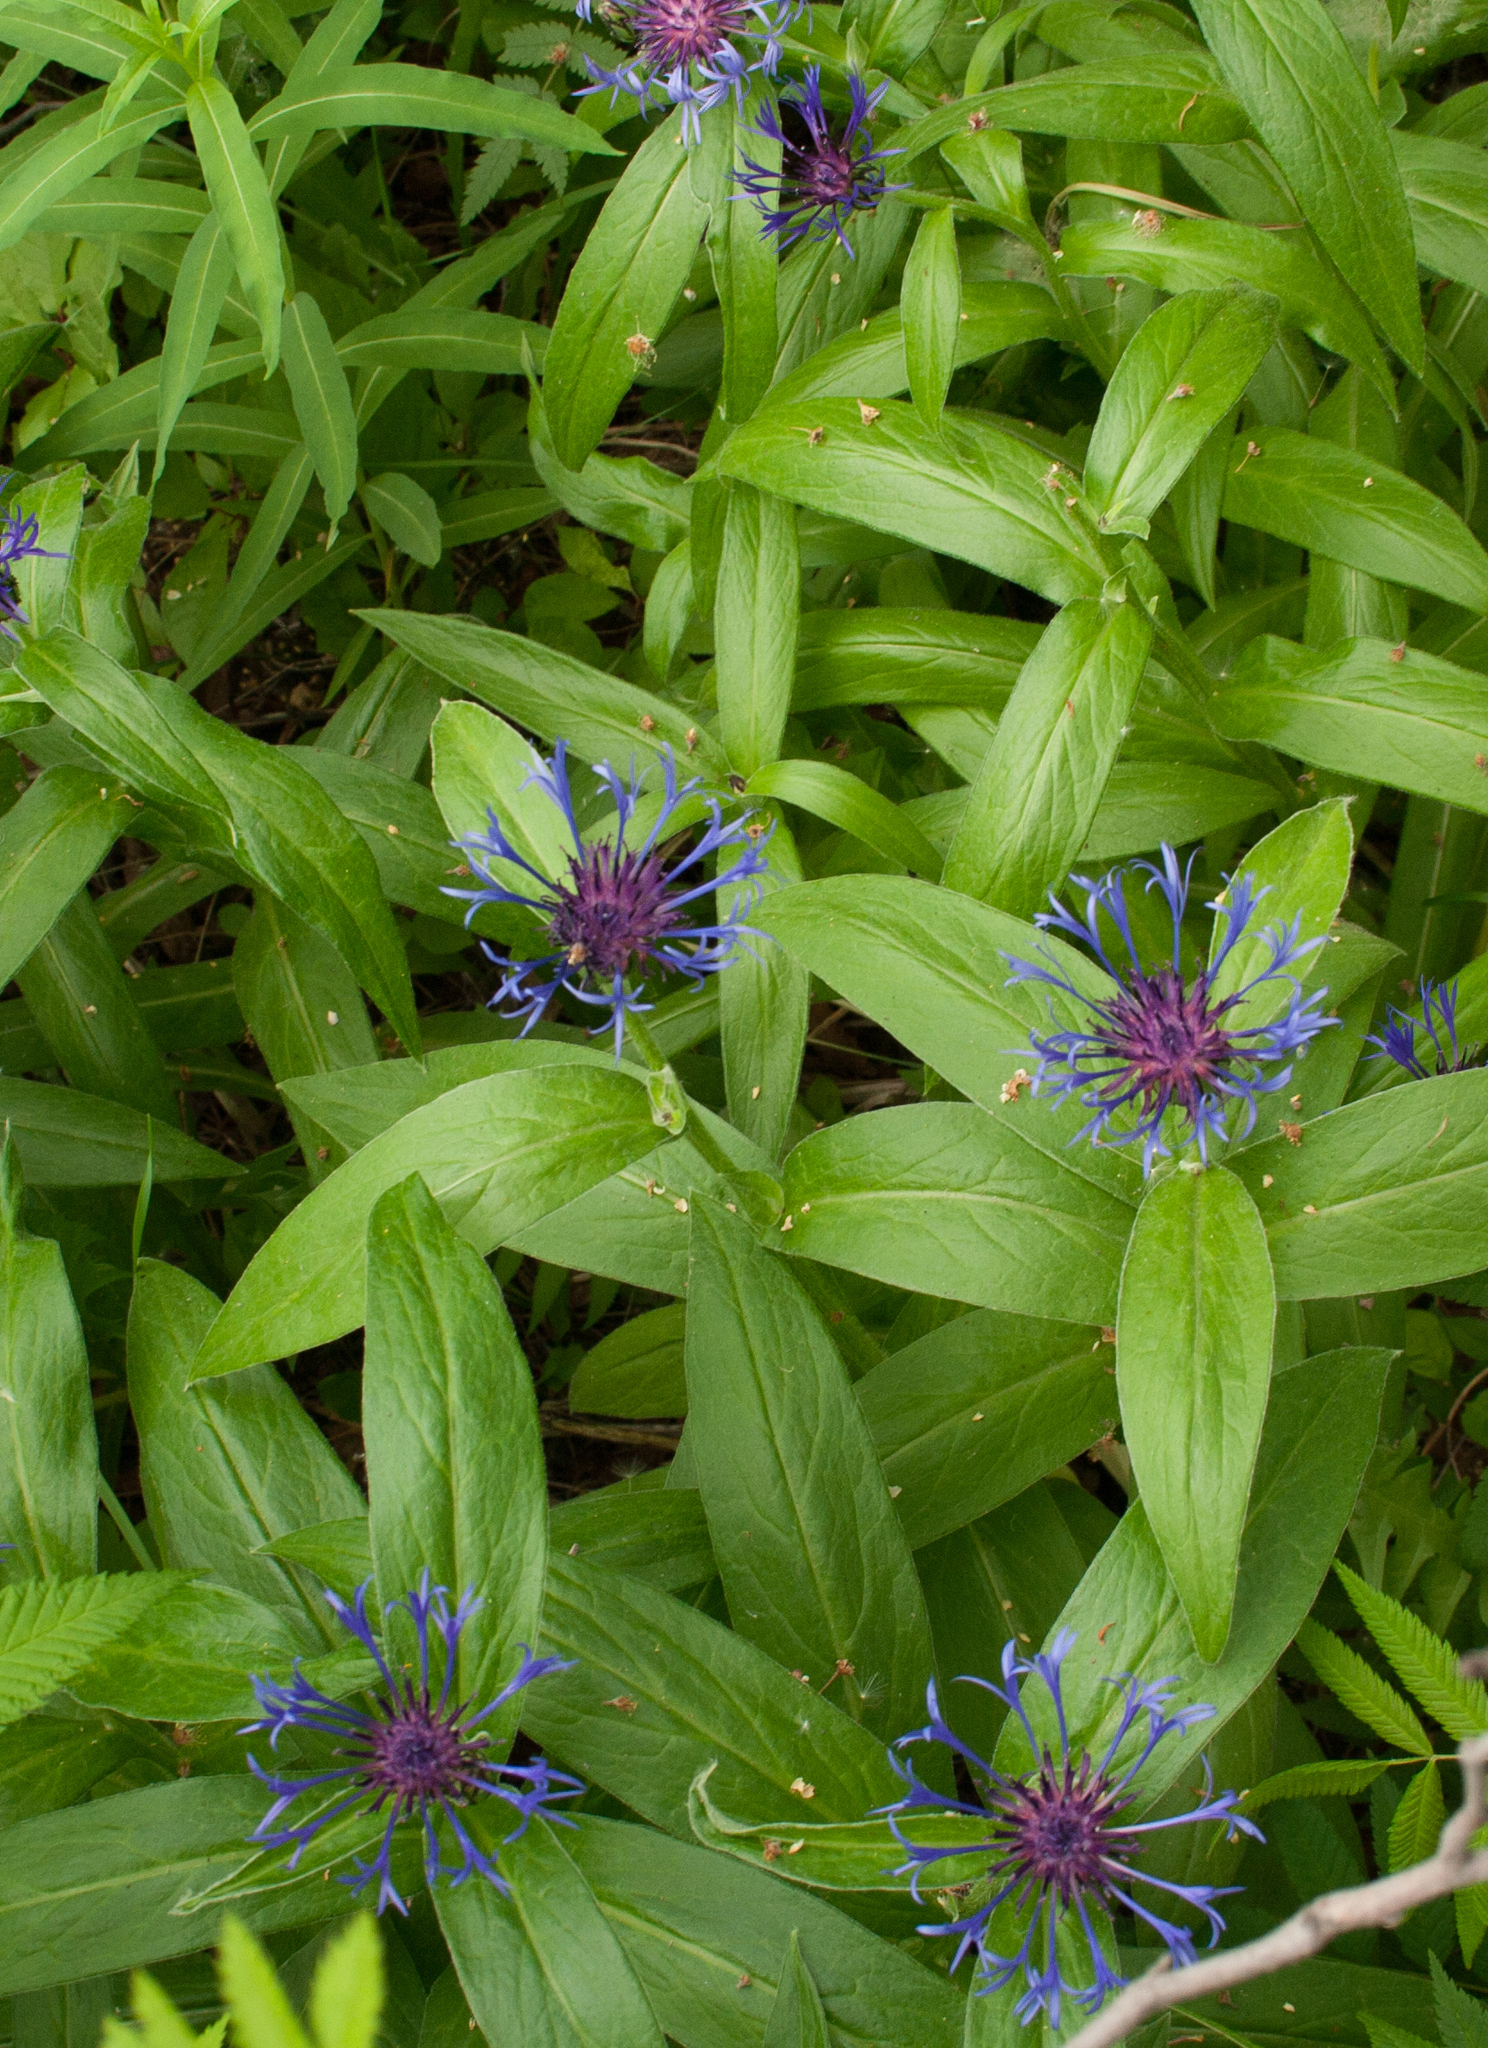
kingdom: Plantae
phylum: Tracheophyta
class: Magnoliopsida
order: Asterales
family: Asteraceae
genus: Centaurea
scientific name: Centaurea montana
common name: Perennial cornflower
